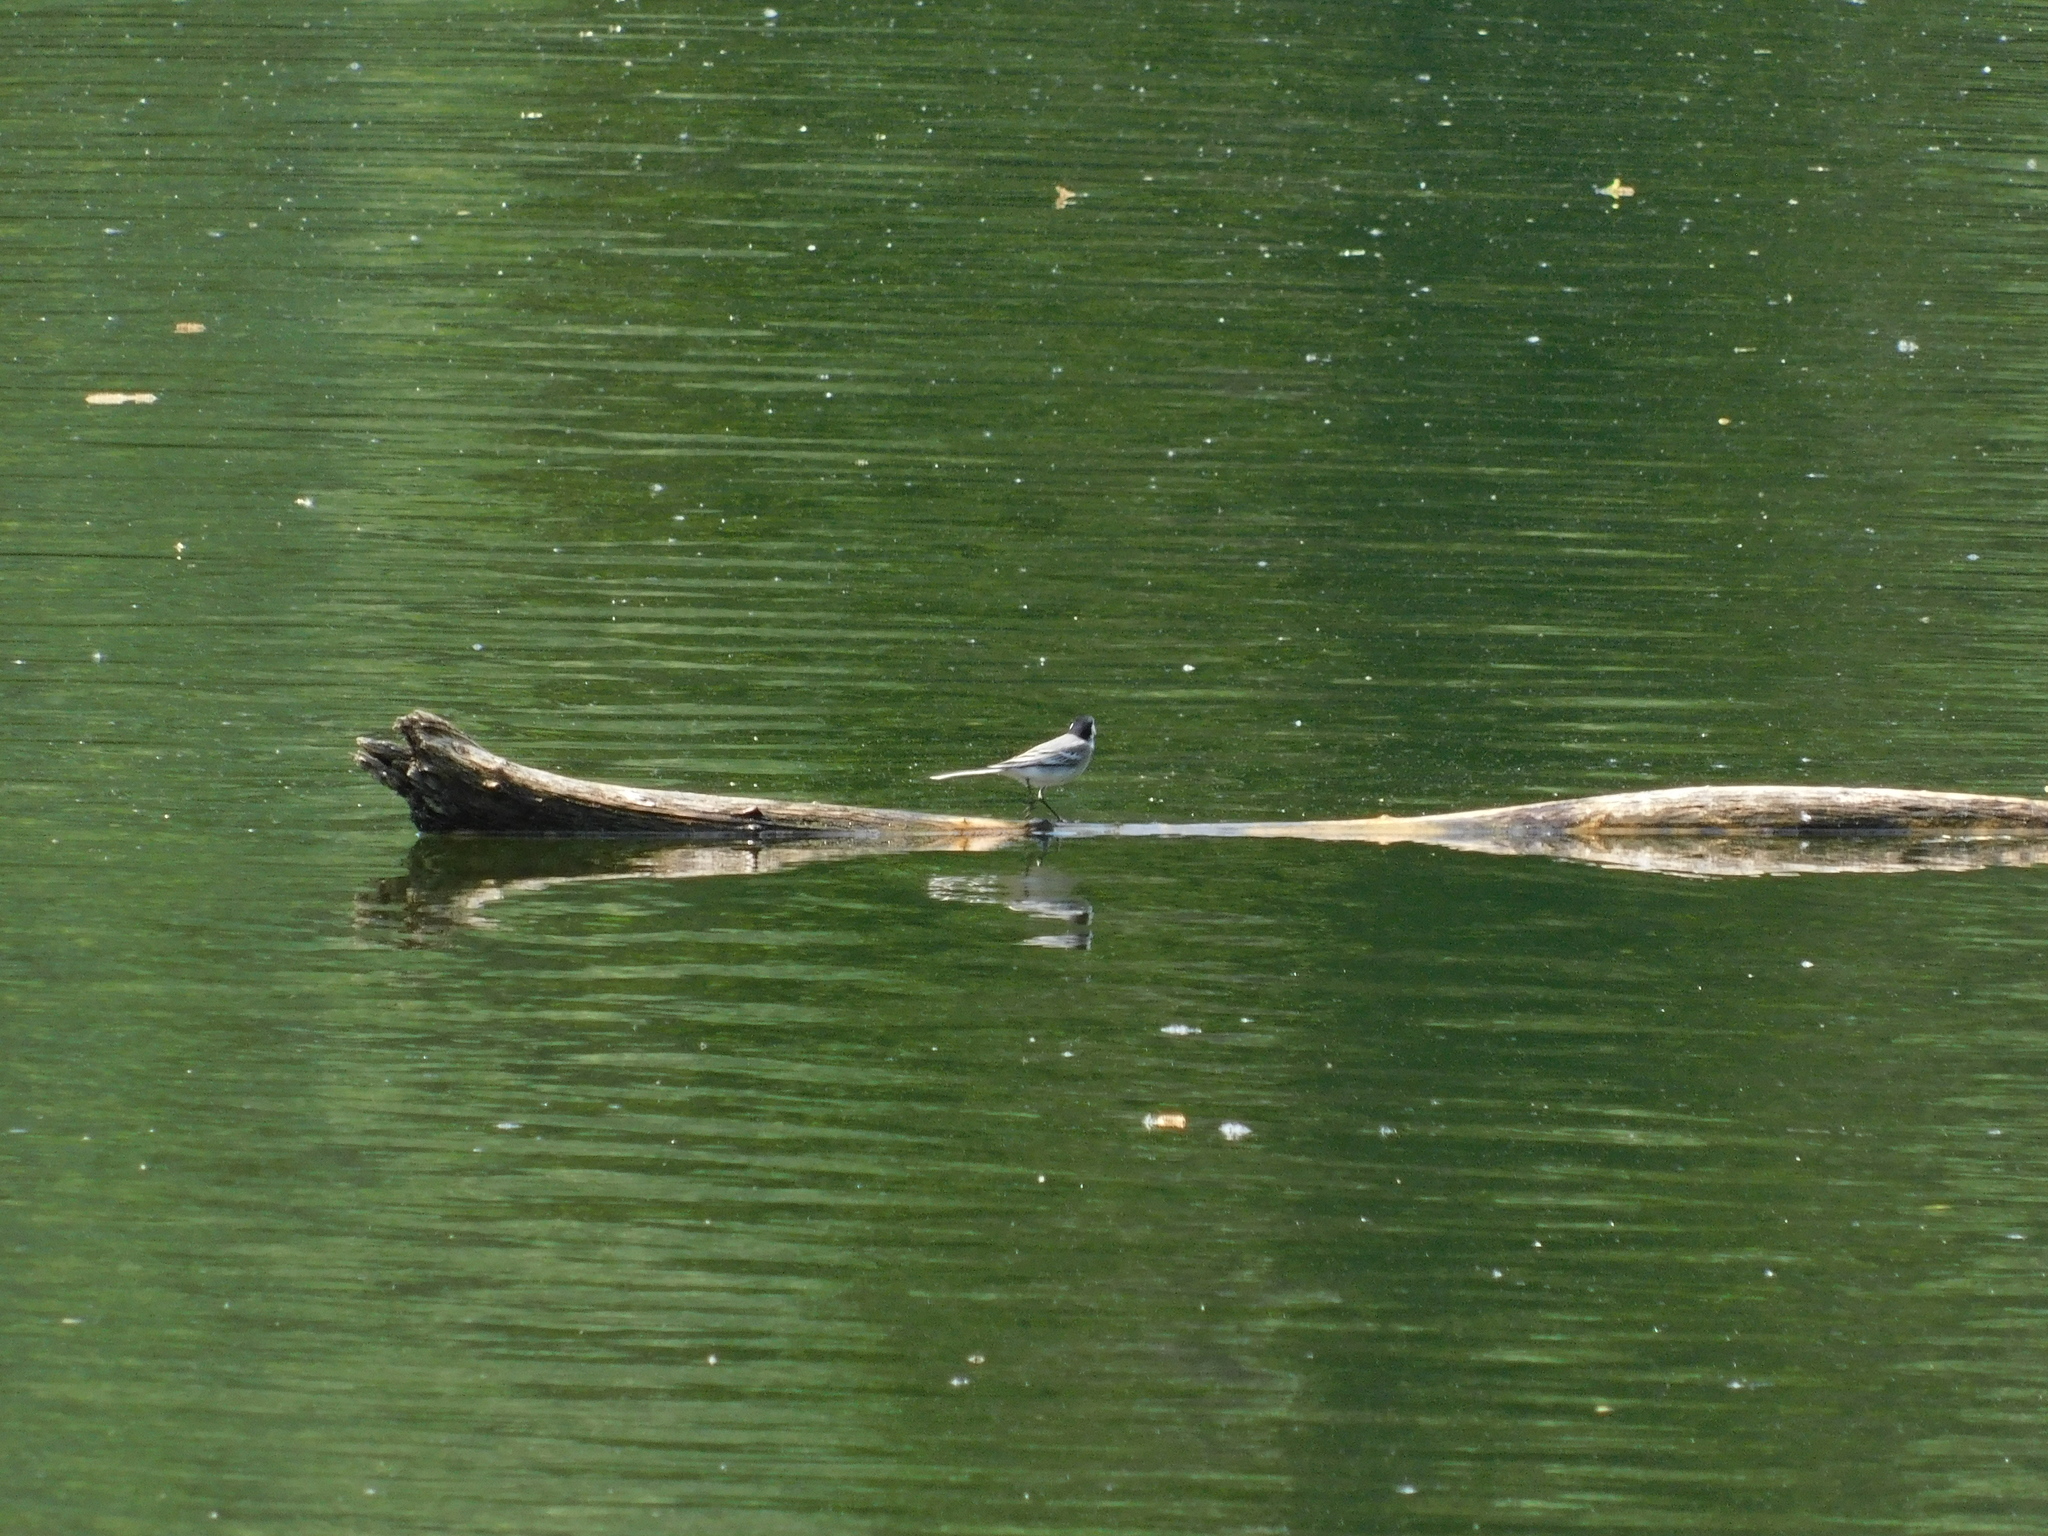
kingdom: Animalia
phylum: Chordata
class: Aves
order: Passeriformes
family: Motacillidae
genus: Motacilla
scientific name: Motacilla alba
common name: White wagtail
